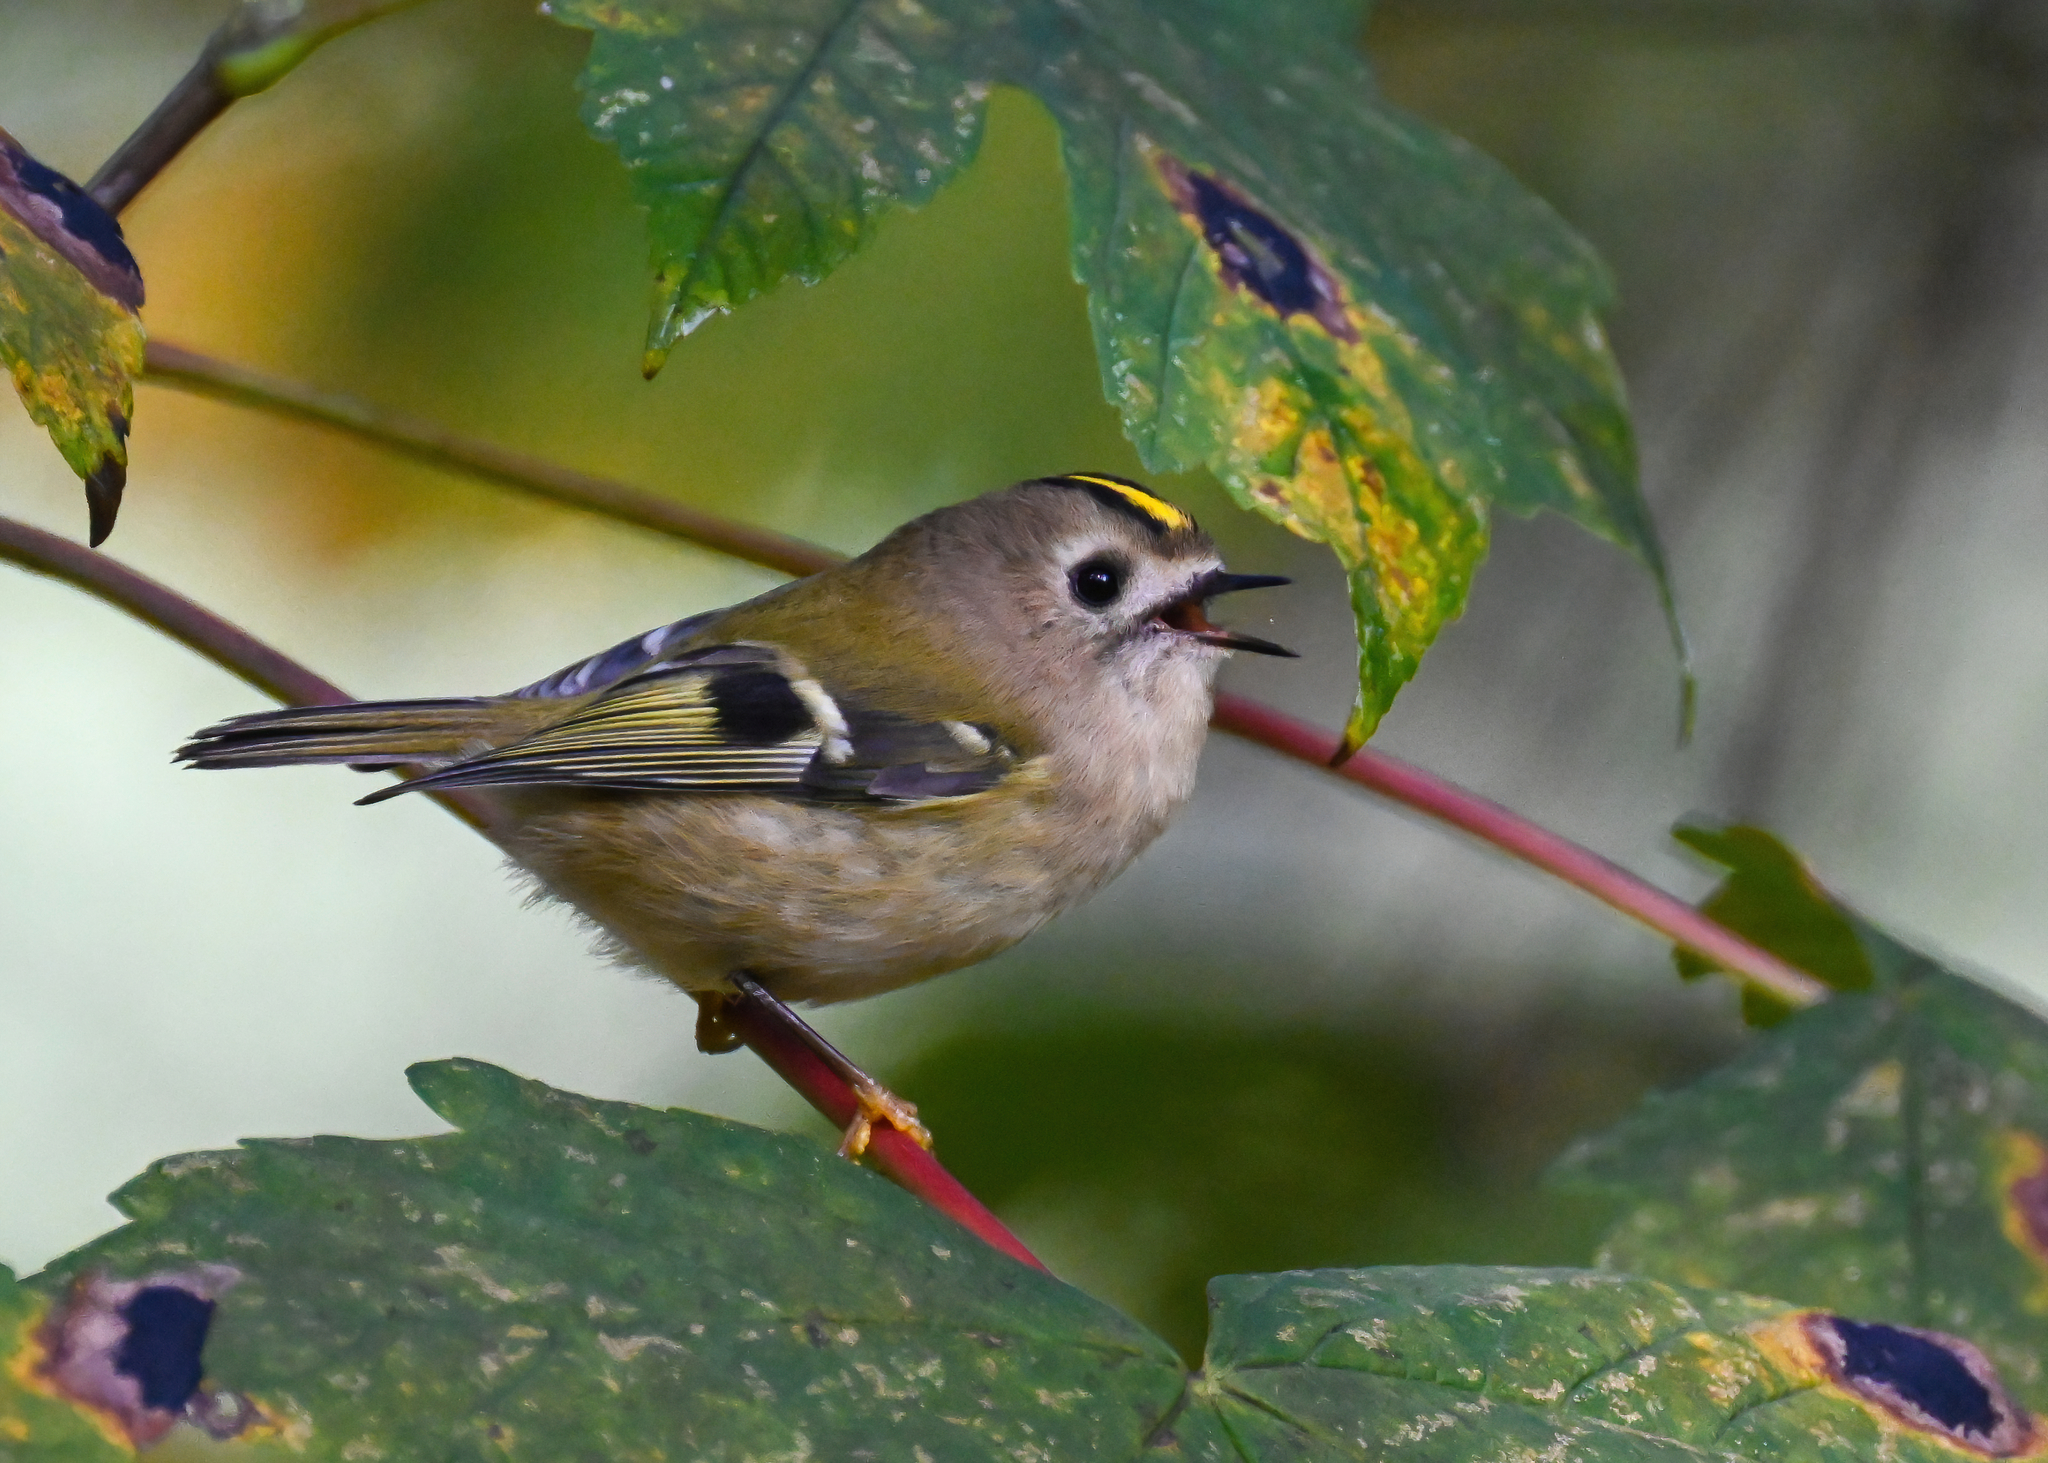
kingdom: Animalia
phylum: Chordata
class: Aves
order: Passeriformes
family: Regulidae
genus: Regulus
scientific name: Regulus regulus
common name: Goldcrest
